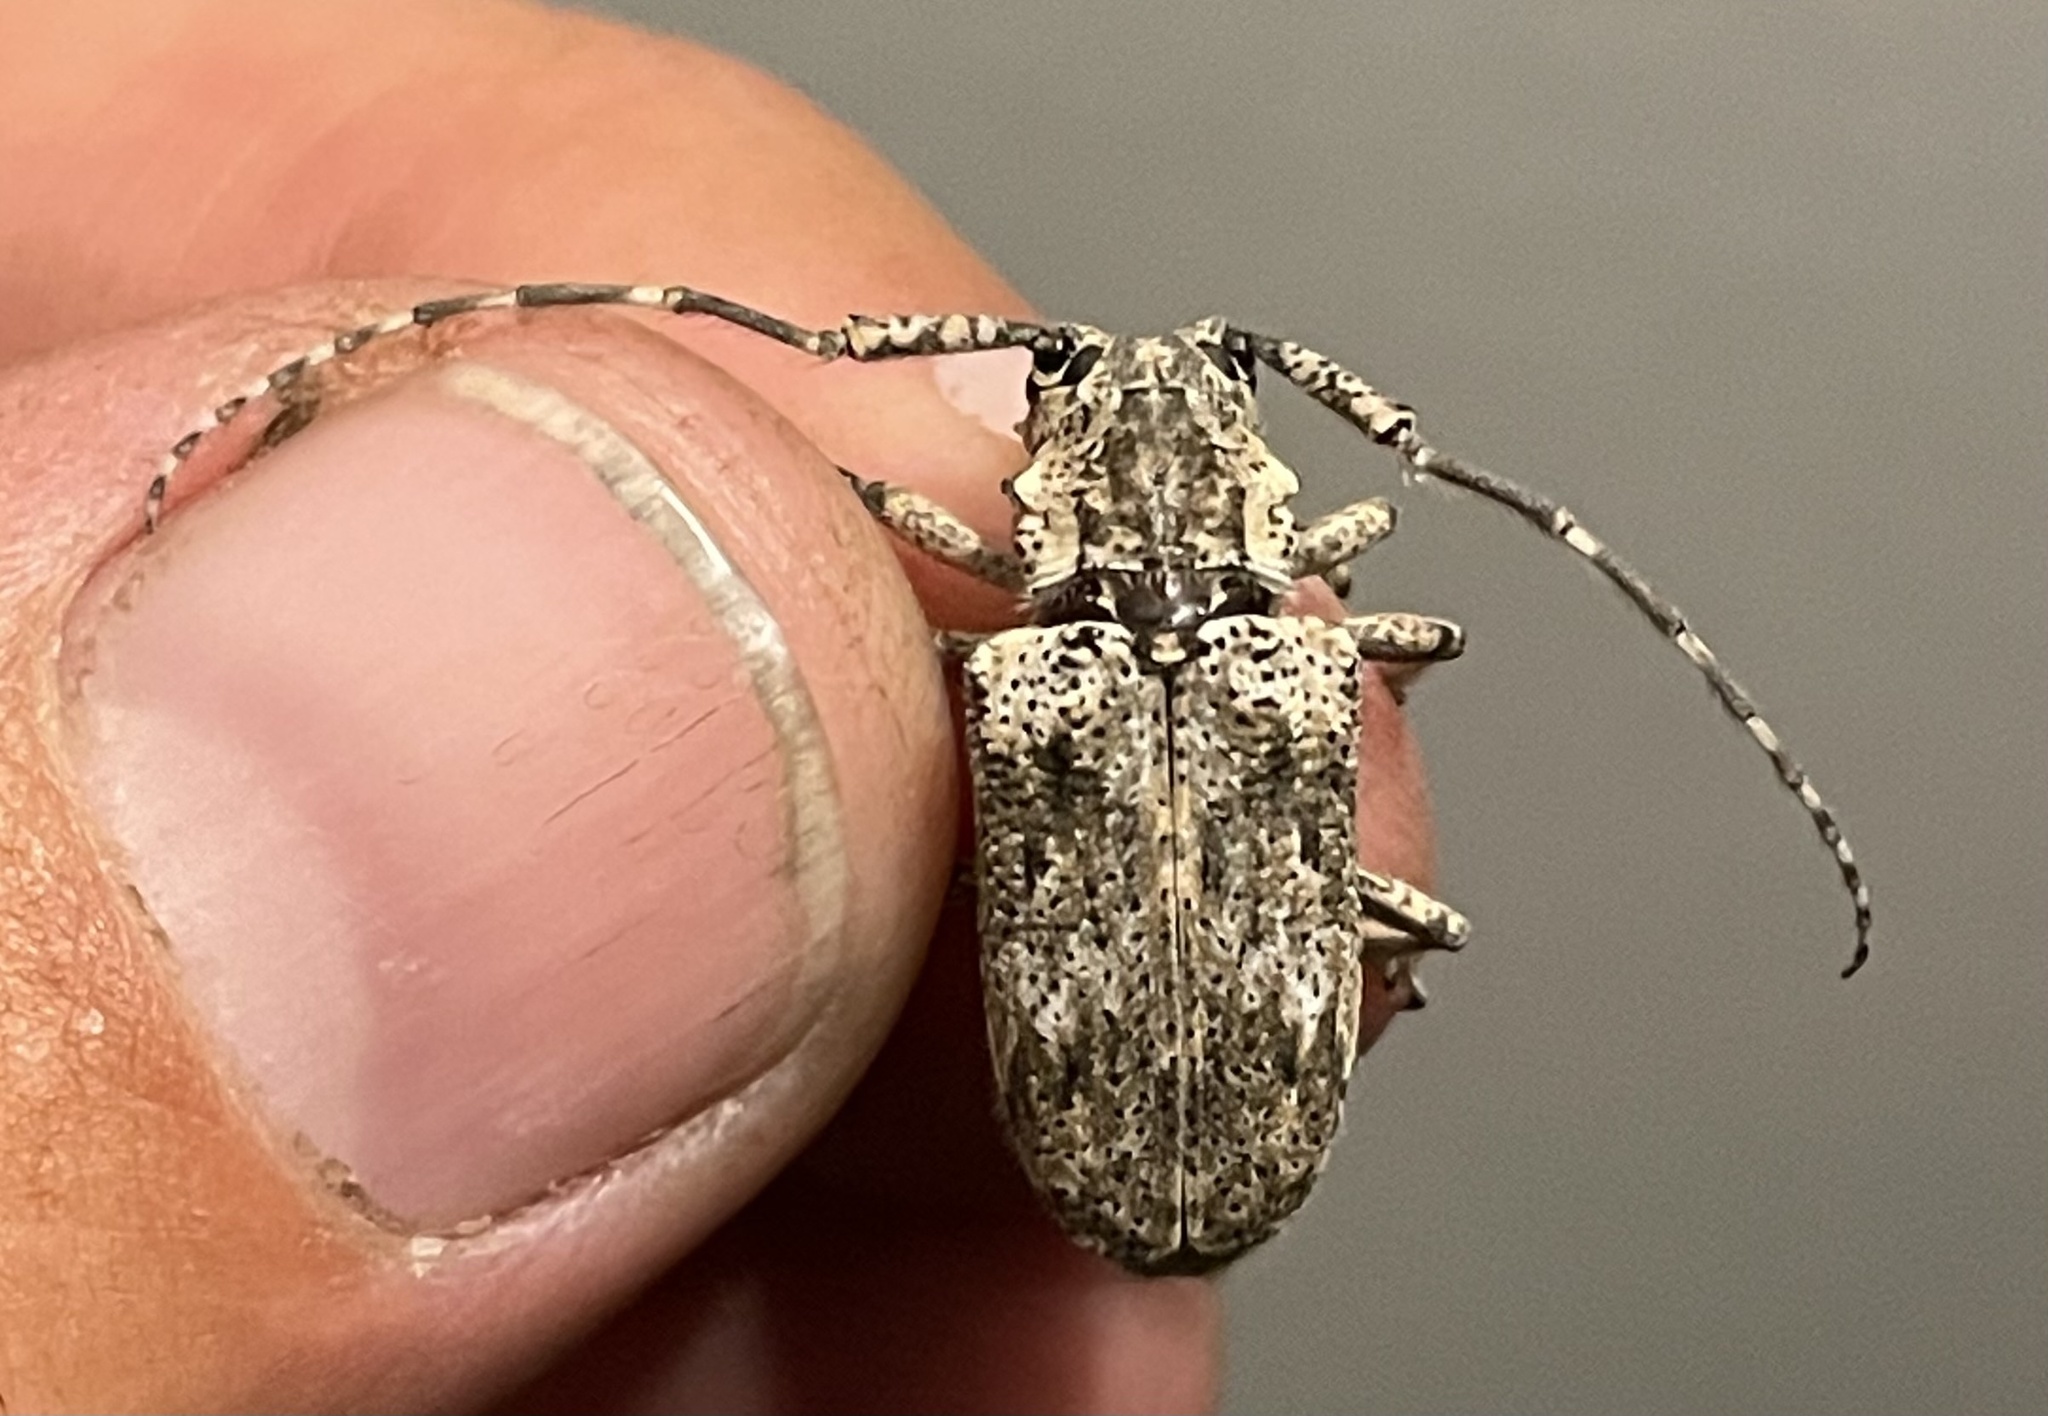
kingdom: Animalia
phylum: Arthropoda
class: Insecta
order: Coleoptera
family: Cerambycidae
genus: Coptops
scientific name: Coptops aedificator
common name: Long-horned beetle
